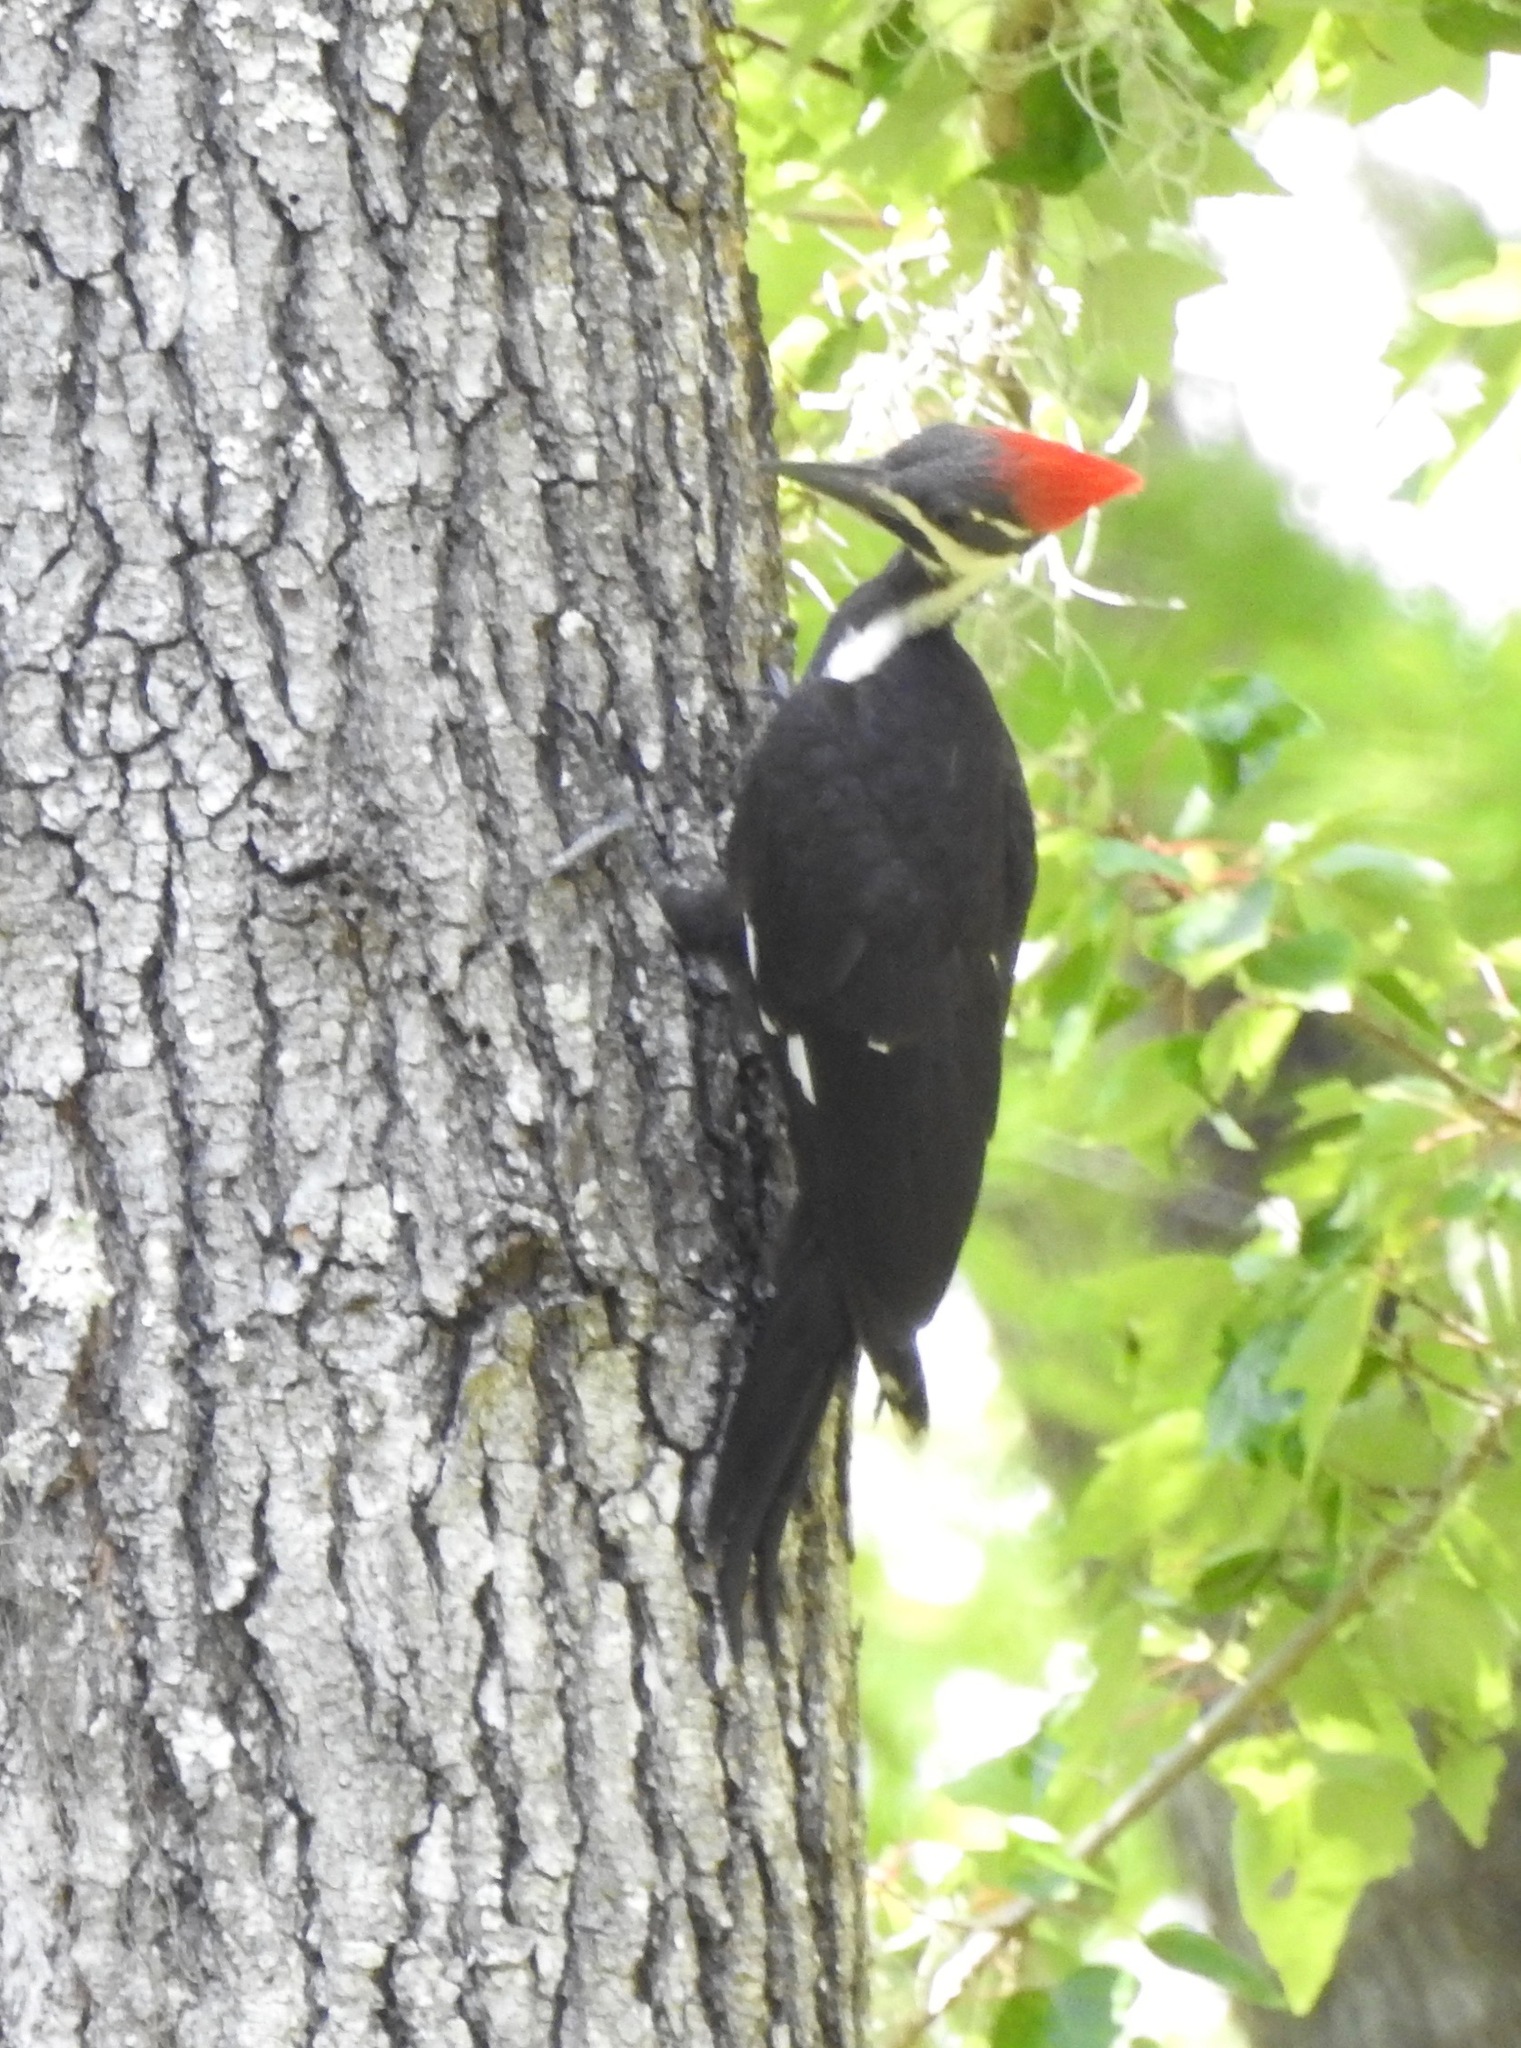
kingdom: Animalia
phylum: Chordata
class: Aves
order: Piciformes
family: Picidae
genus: Dryocopus
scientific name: Dryocopus pileatus
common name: Pileated woodpecker
